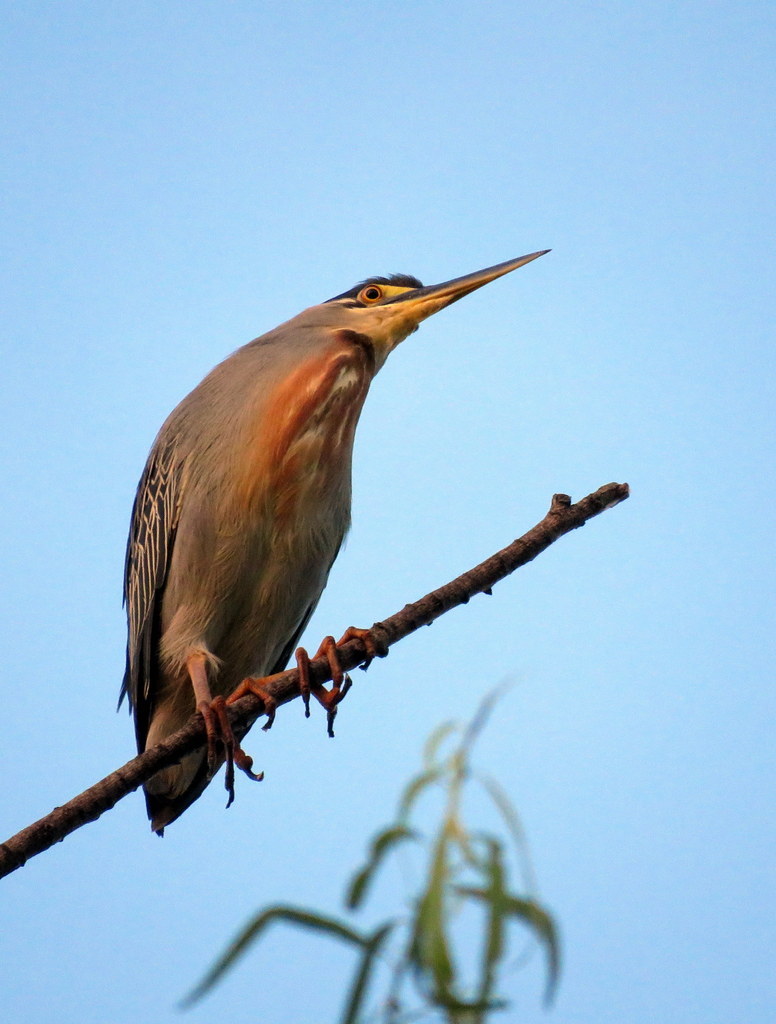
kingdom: Animalia
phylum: Chordata
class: Aves
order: Pelecaniformes
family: Ardeidae
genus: Butorides
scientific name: Butorides striata
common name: Striated heron
